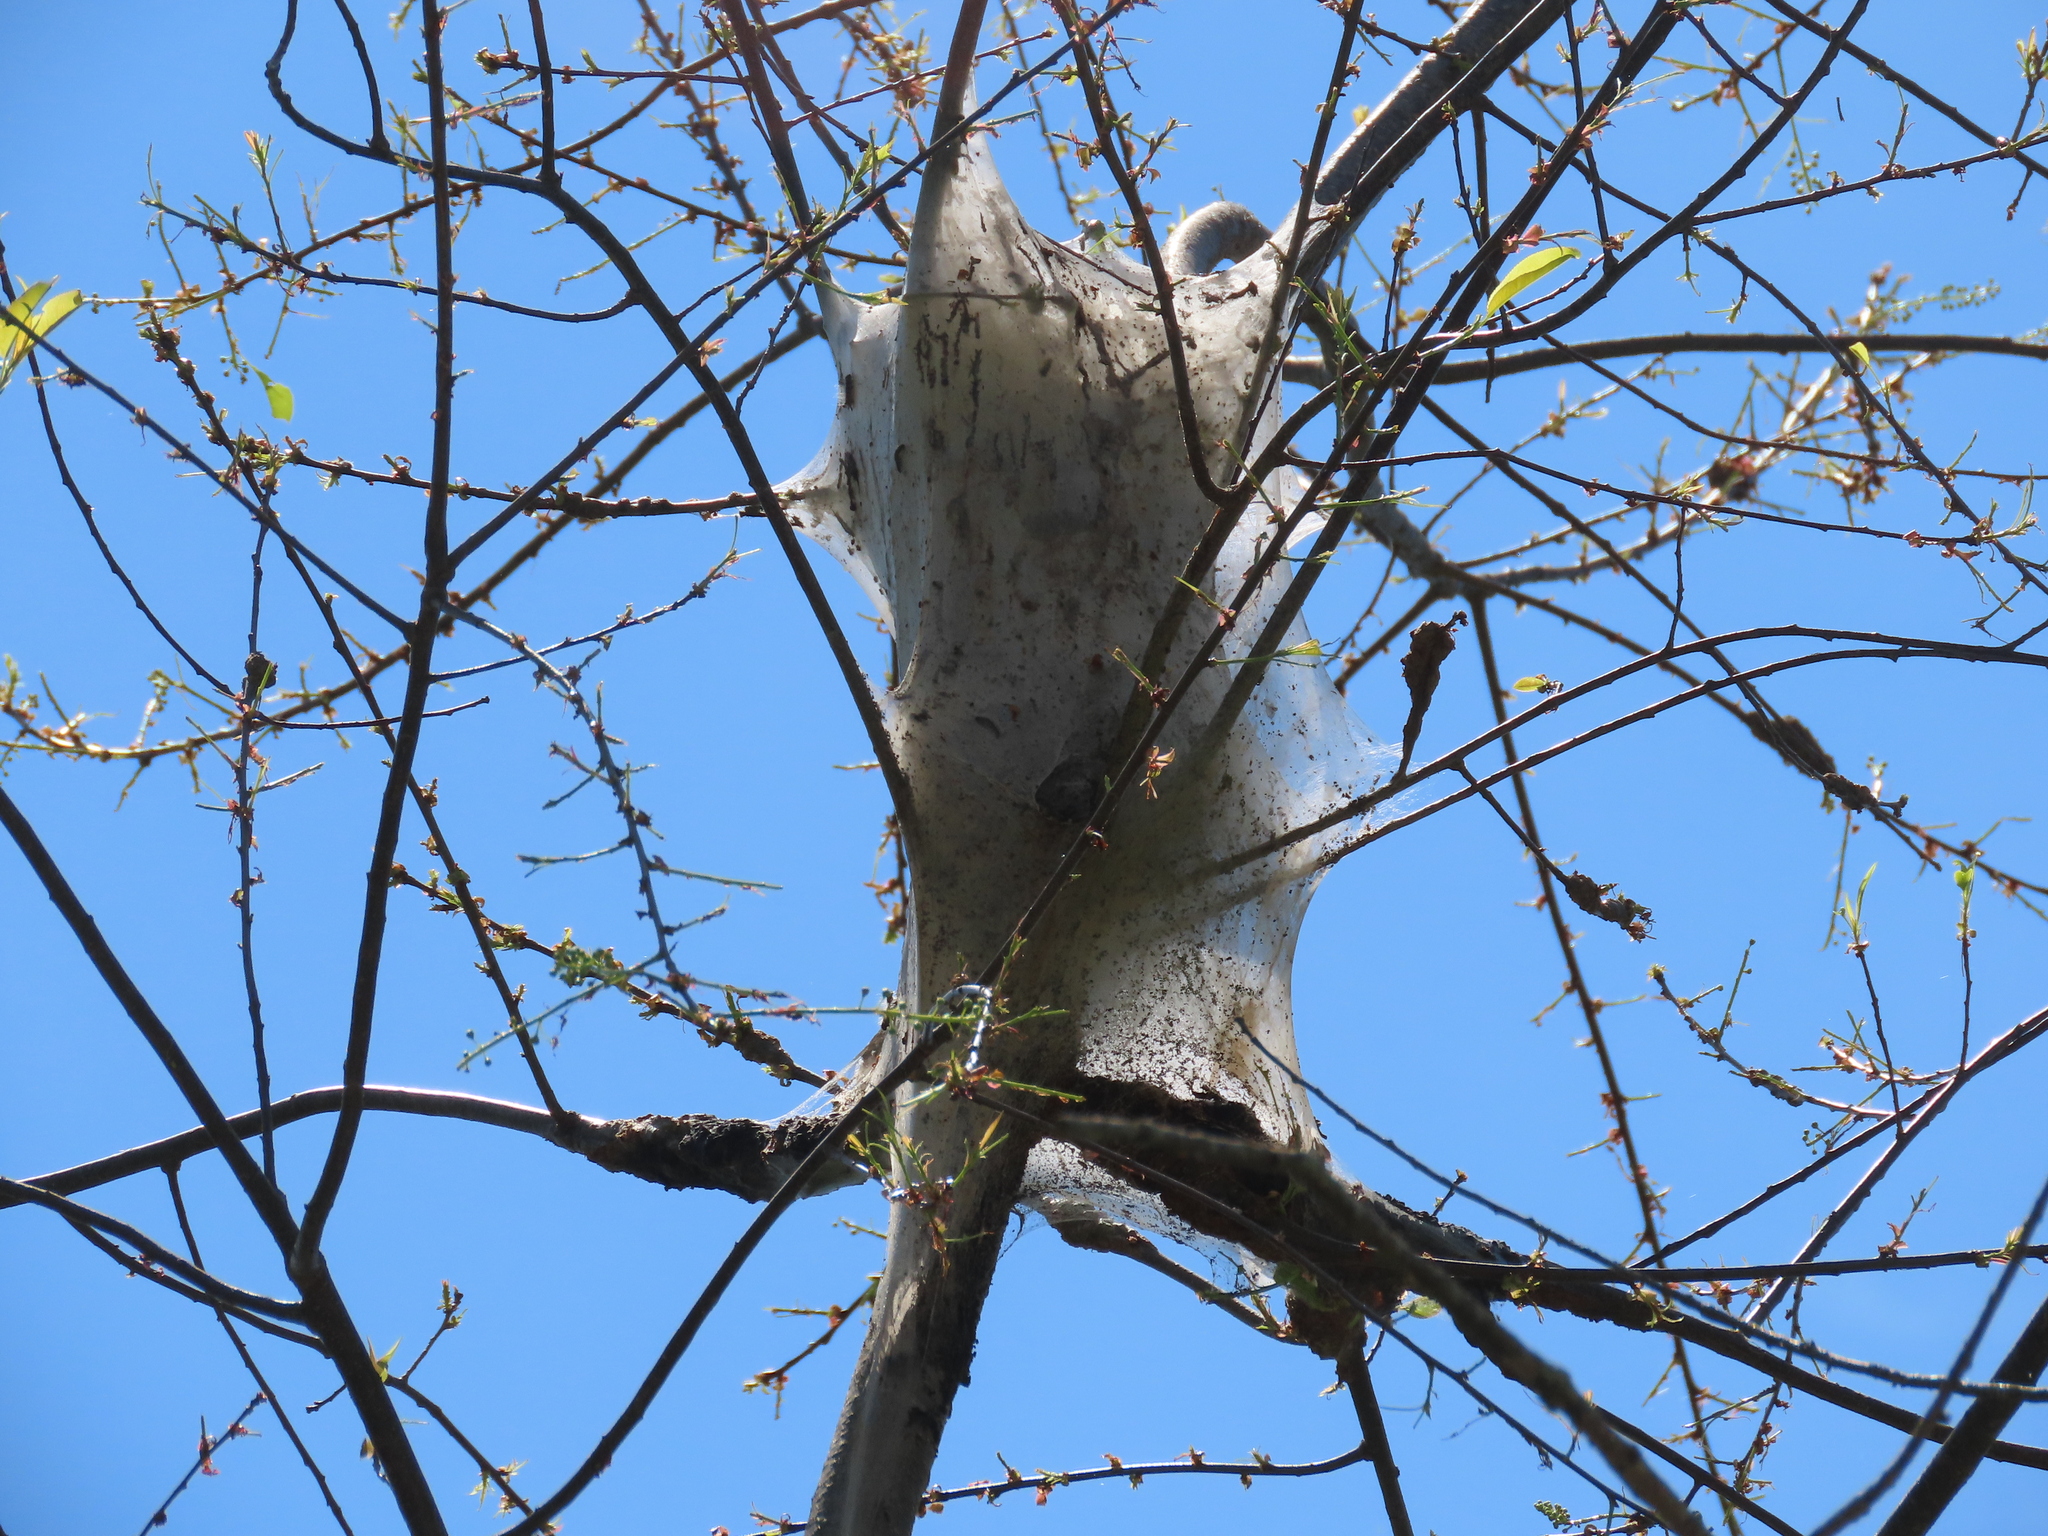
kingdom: Animalia
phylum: Arthropoda
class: Insecta
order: Lepidoptera
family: Lasiocampidae
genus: Malacosoma
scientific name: Malacosoma americana
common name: Eastern tent caterpillar moth
